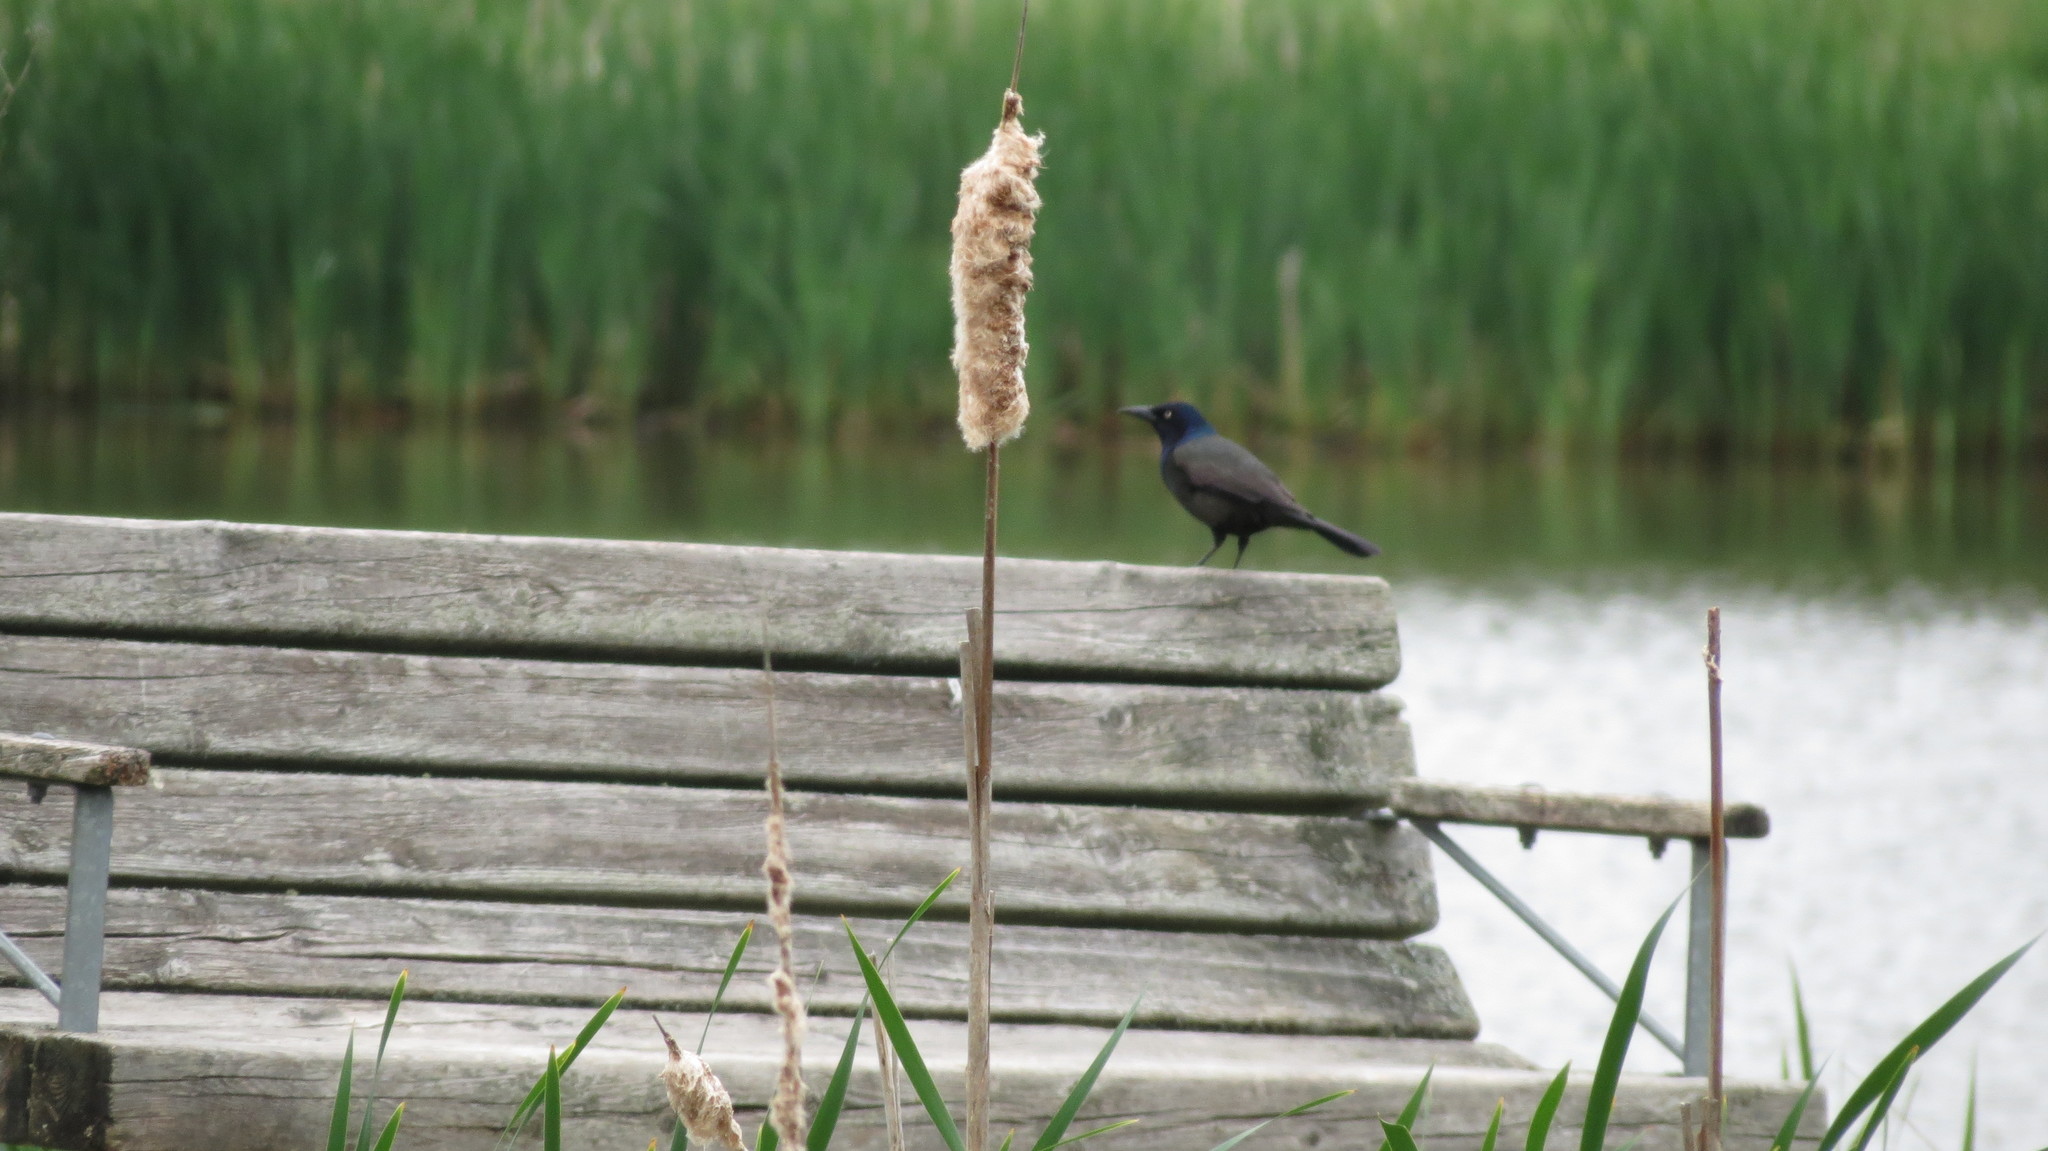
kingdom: Animalia
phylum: Chordata
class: Aves
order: Passeriformes
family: Icteridae
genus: Quiscalus
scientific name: Quiscalus quiscula
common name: Common grackle
